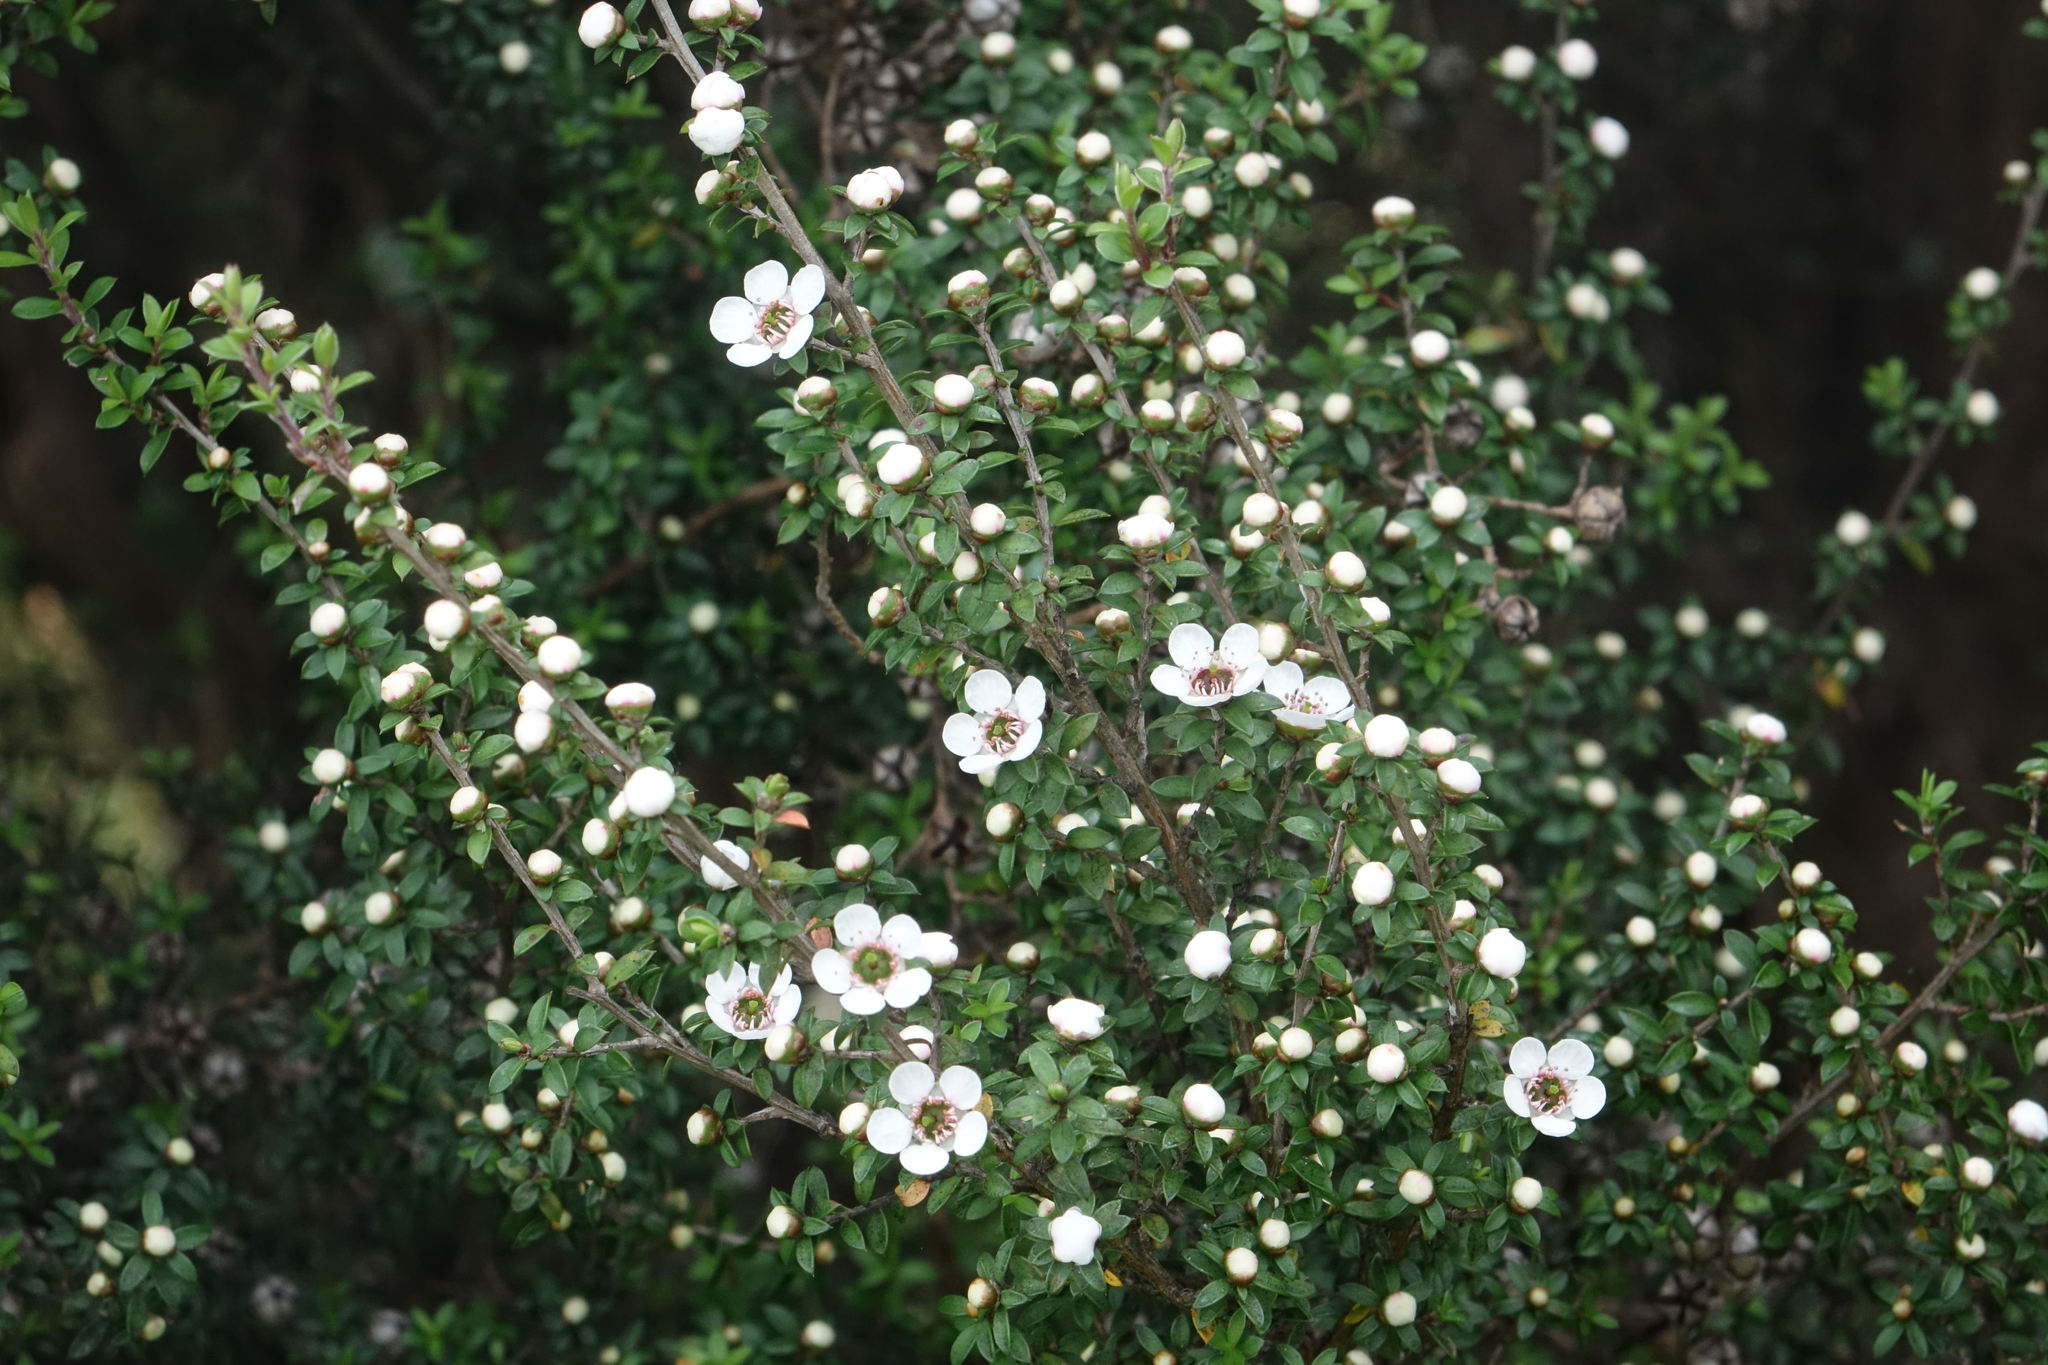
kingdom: Plantae
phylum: Tracheophyta
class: Magnoliopsida
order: Myrtales
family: Myrtaceae
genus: Leptospermum
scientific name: Leptospermum scoparium
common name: Broom tea-tree
